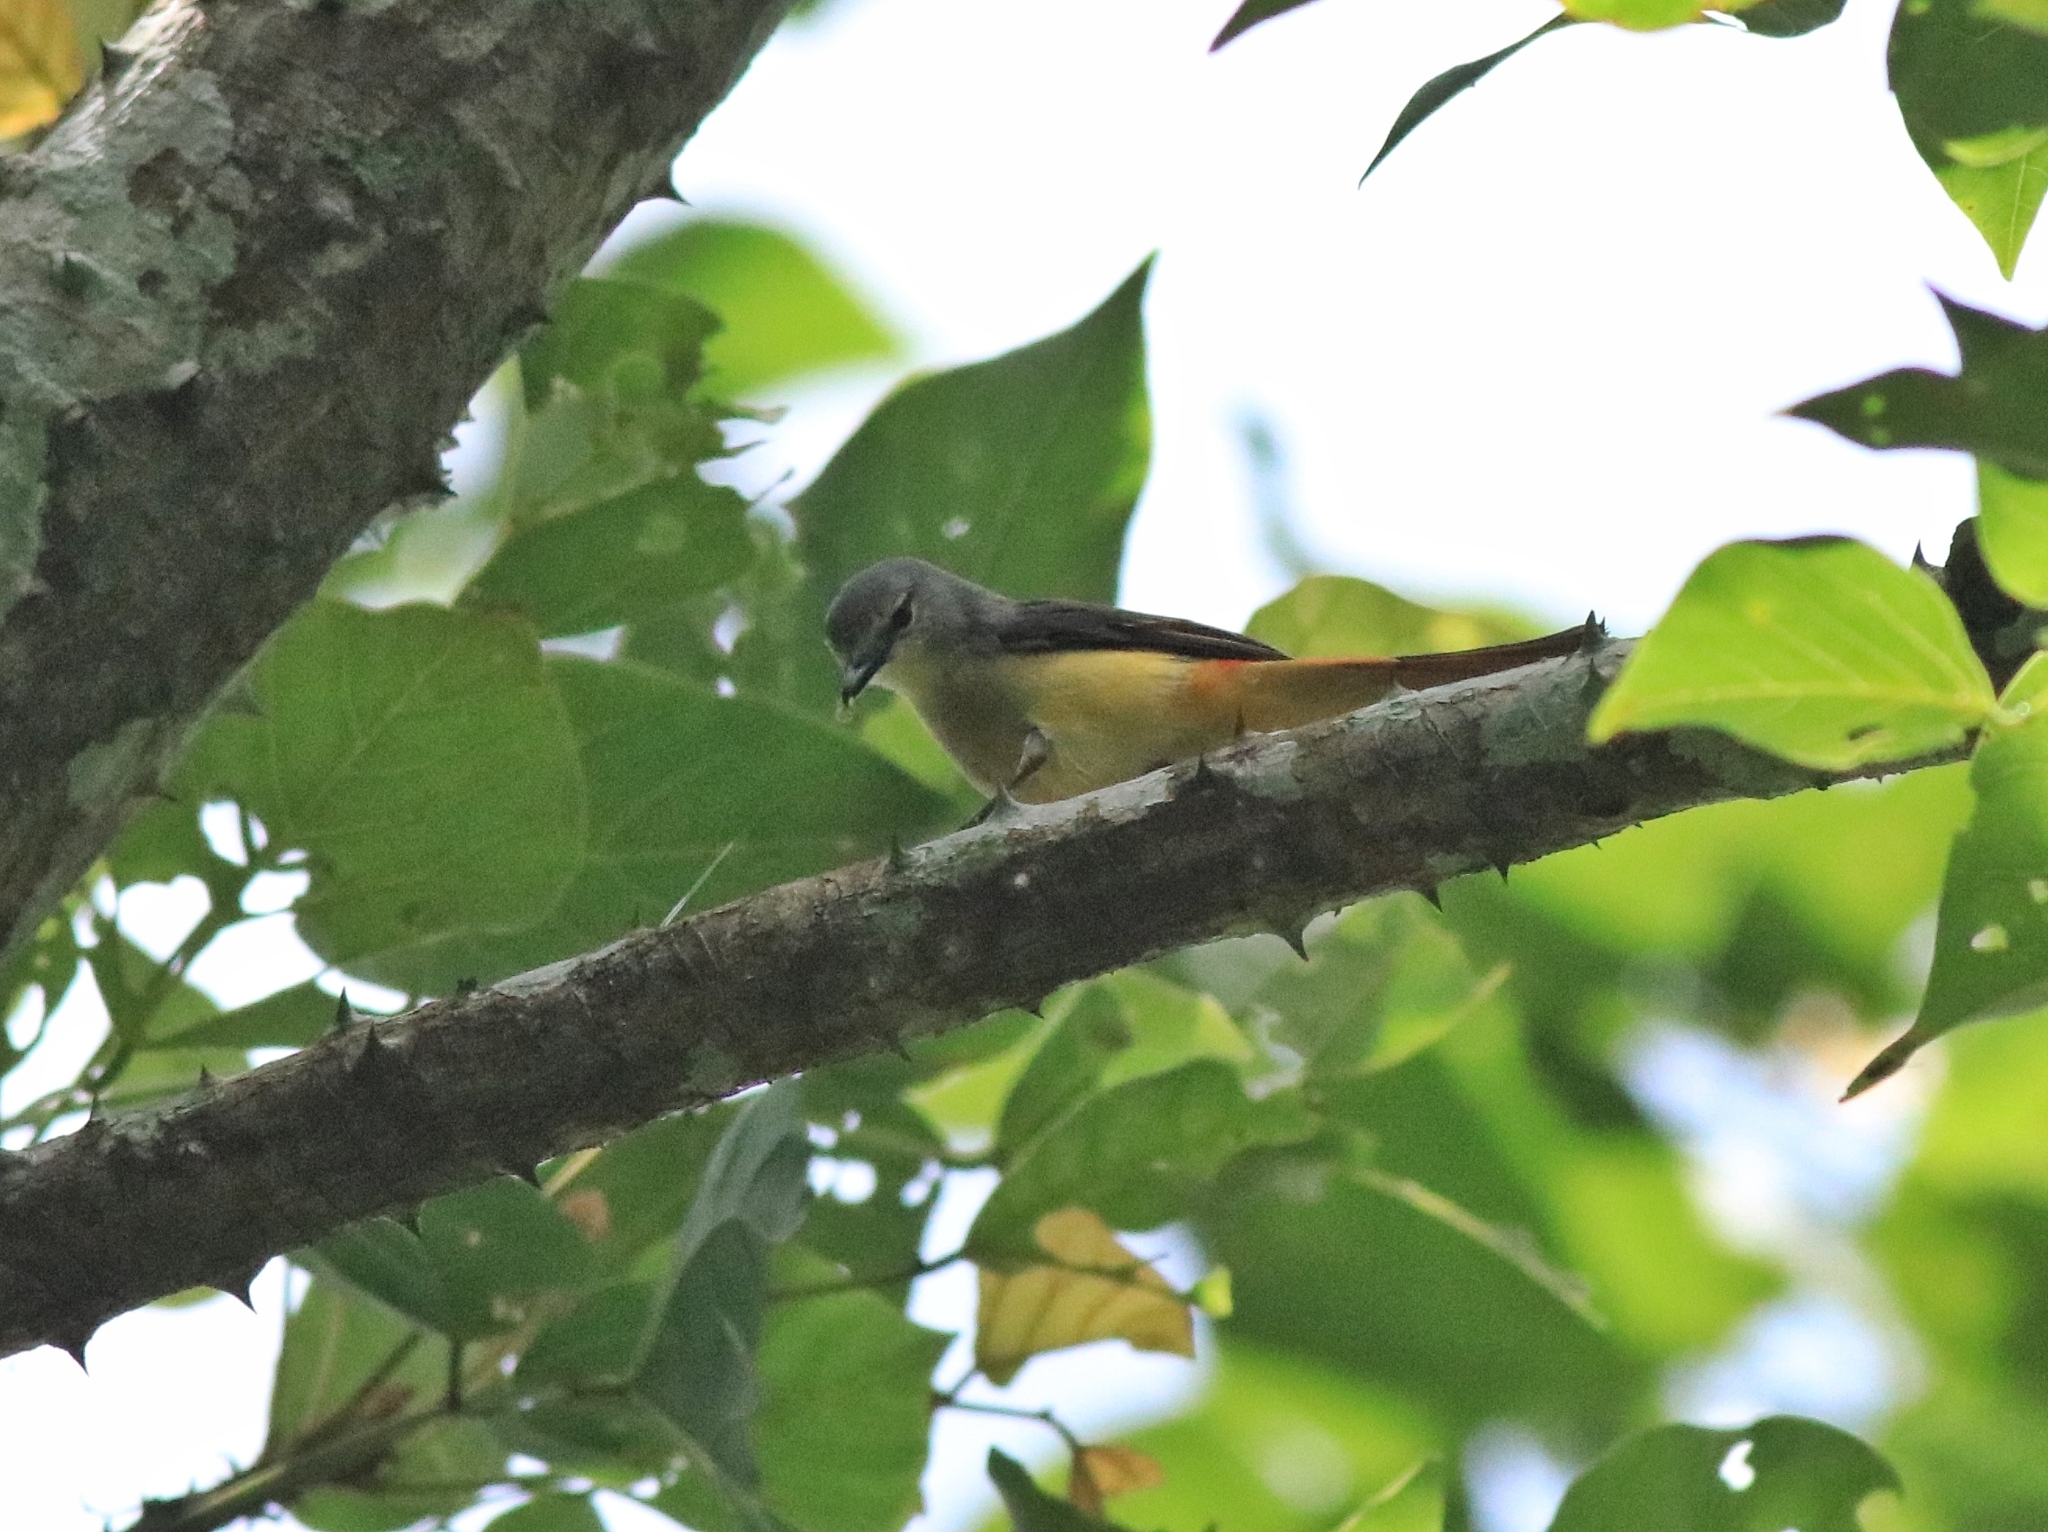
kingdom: Animalia
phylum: Chordata
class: Aves
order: Passeriformes
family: Campephagidae
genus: Pericrocotus
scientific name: Pericrocotus cinnamomeus
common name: Small minivet
